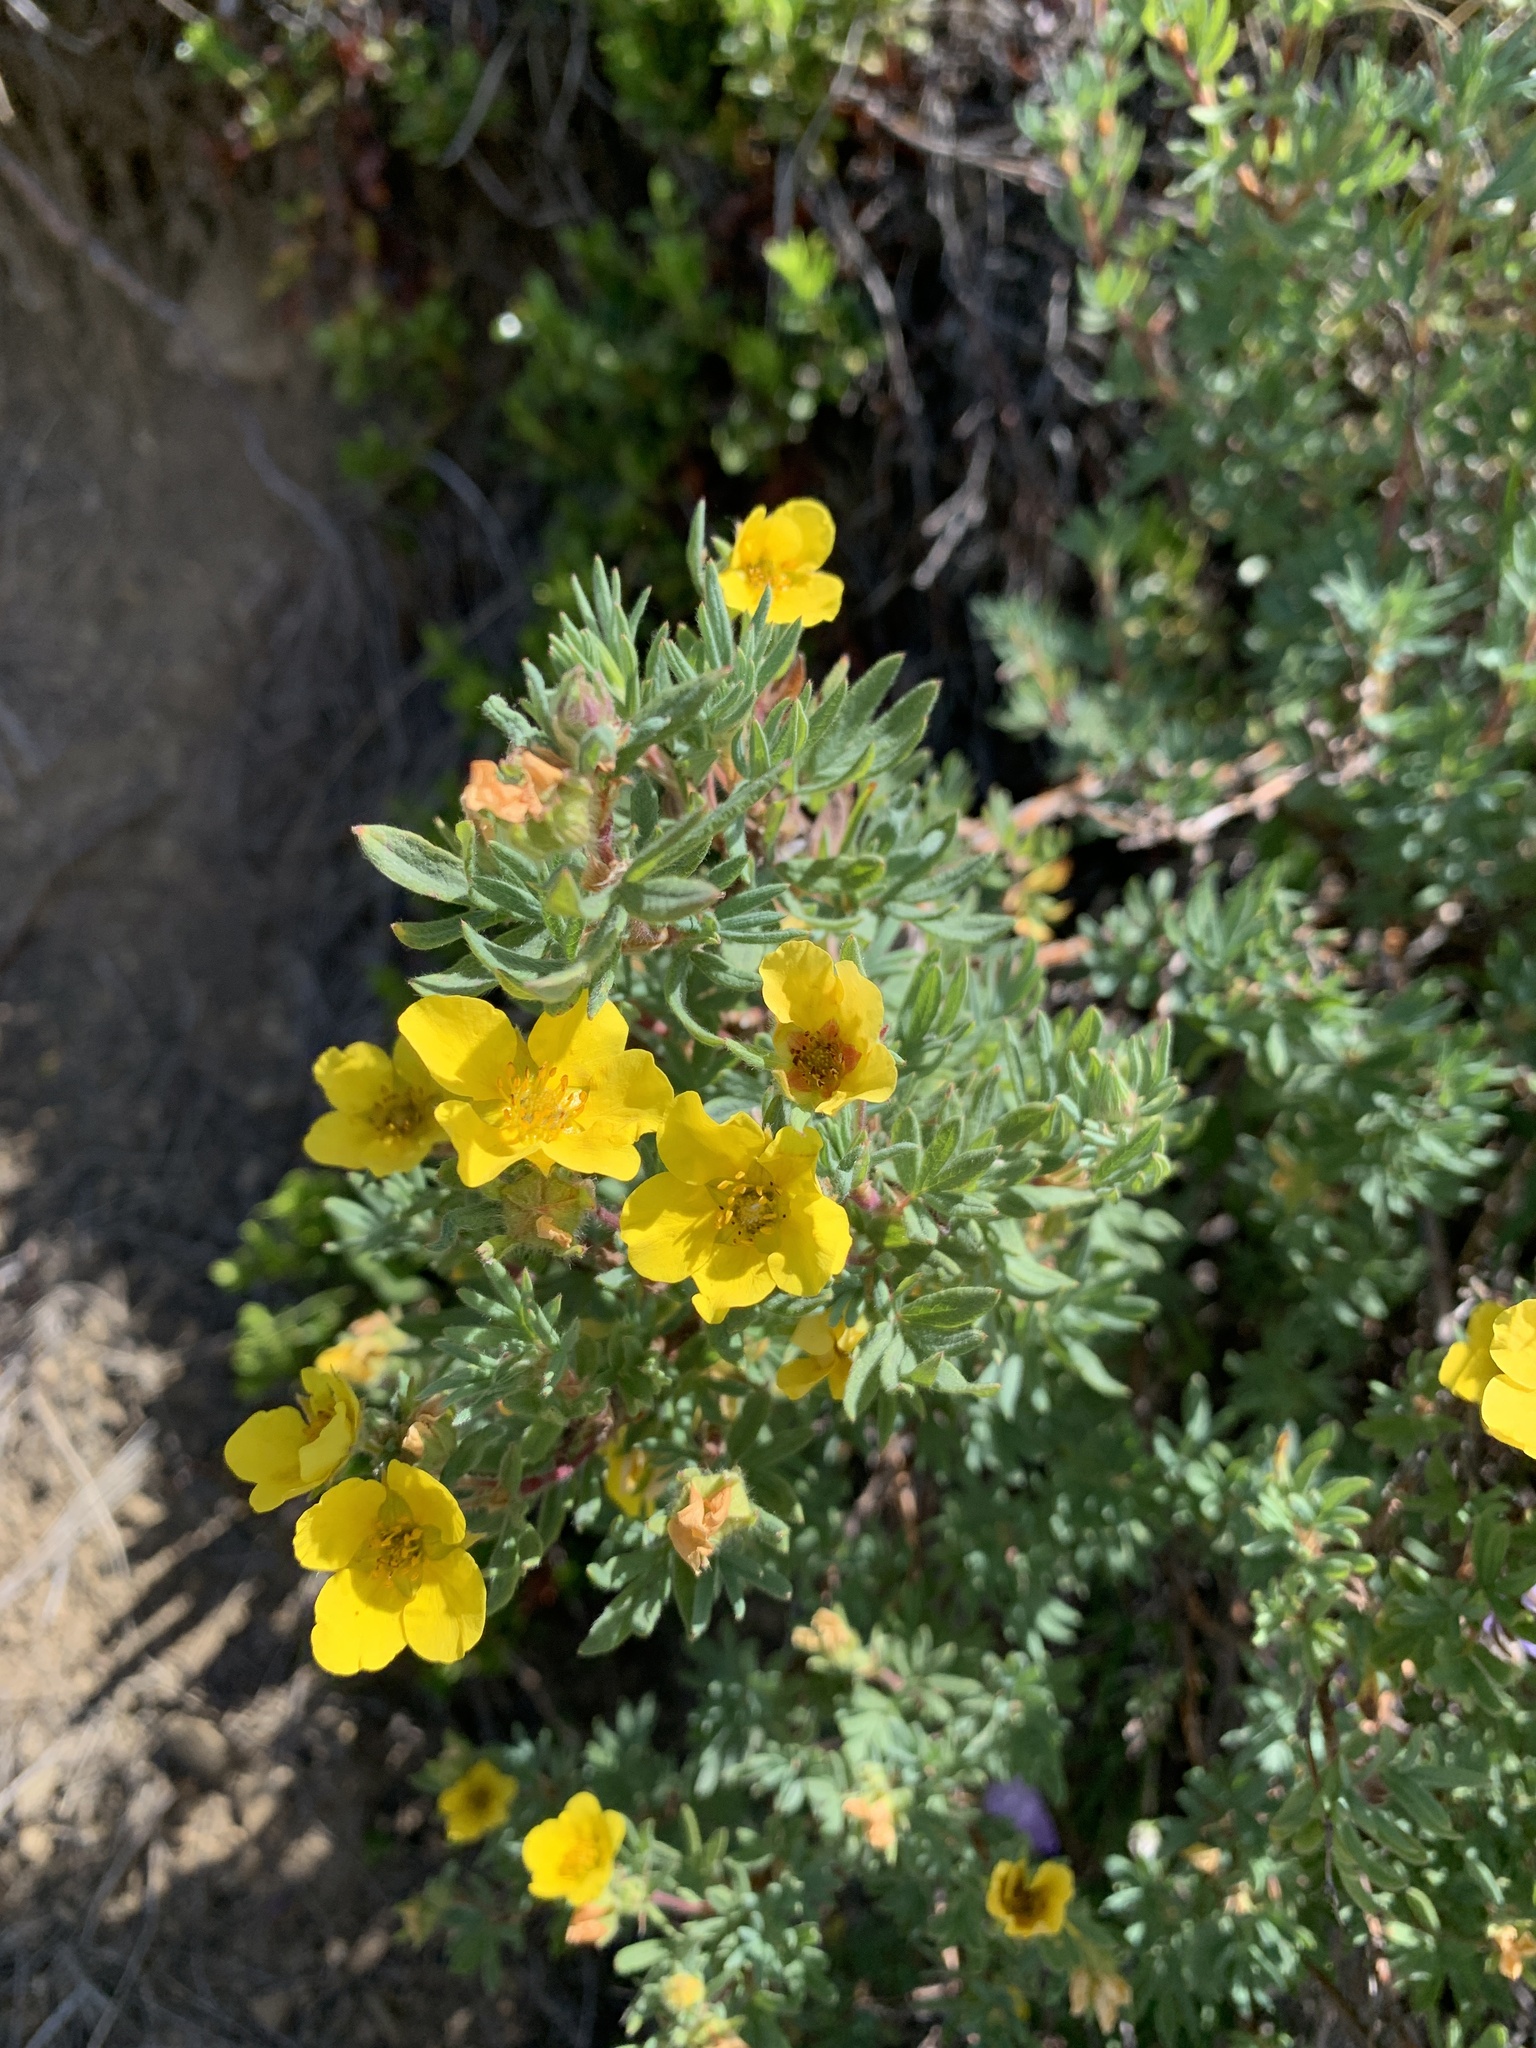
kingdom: Plantae
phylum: Tracheophyta
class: Magnoliopsida
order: Rosales
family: Rosaceae
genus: Dasiphora
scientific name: Dasiphora fruticosa
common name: Shrubby cinquefoil
